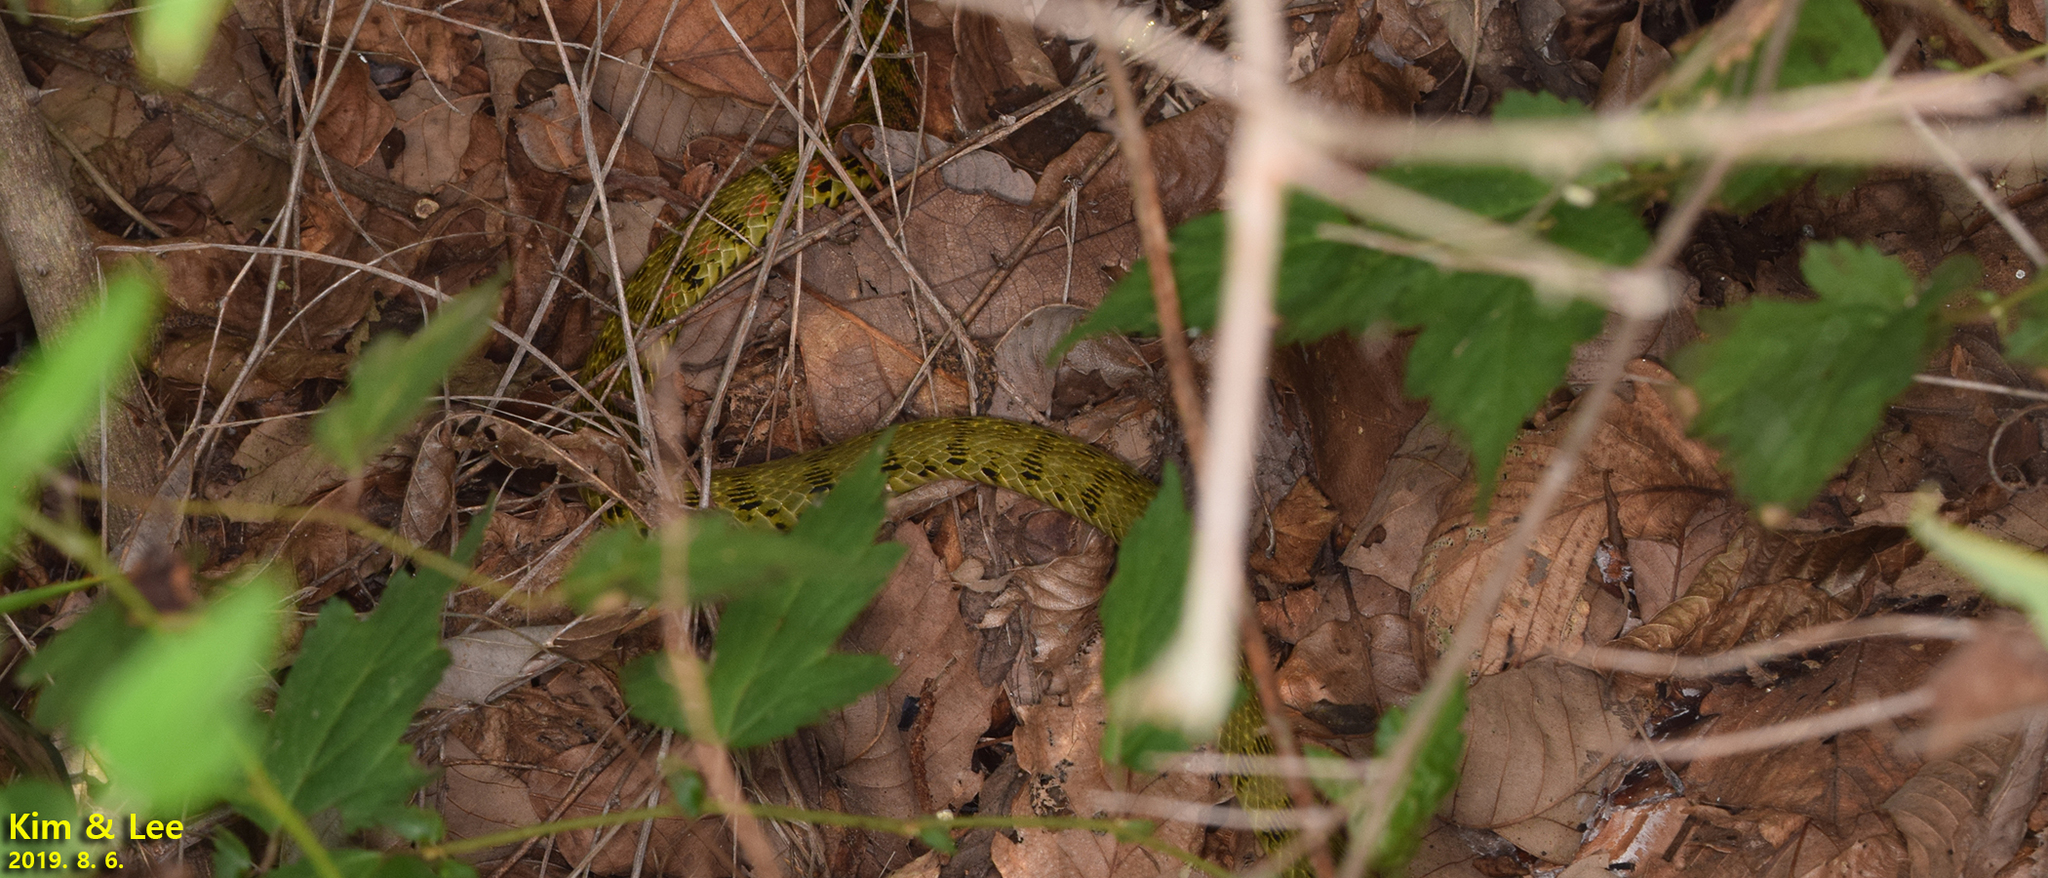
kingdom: Animalia
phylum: Chordata
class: Squamata
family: Colubridae
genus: Rhabdophis
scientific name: Rhabdophis tigrinus
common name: Tiger keelback
